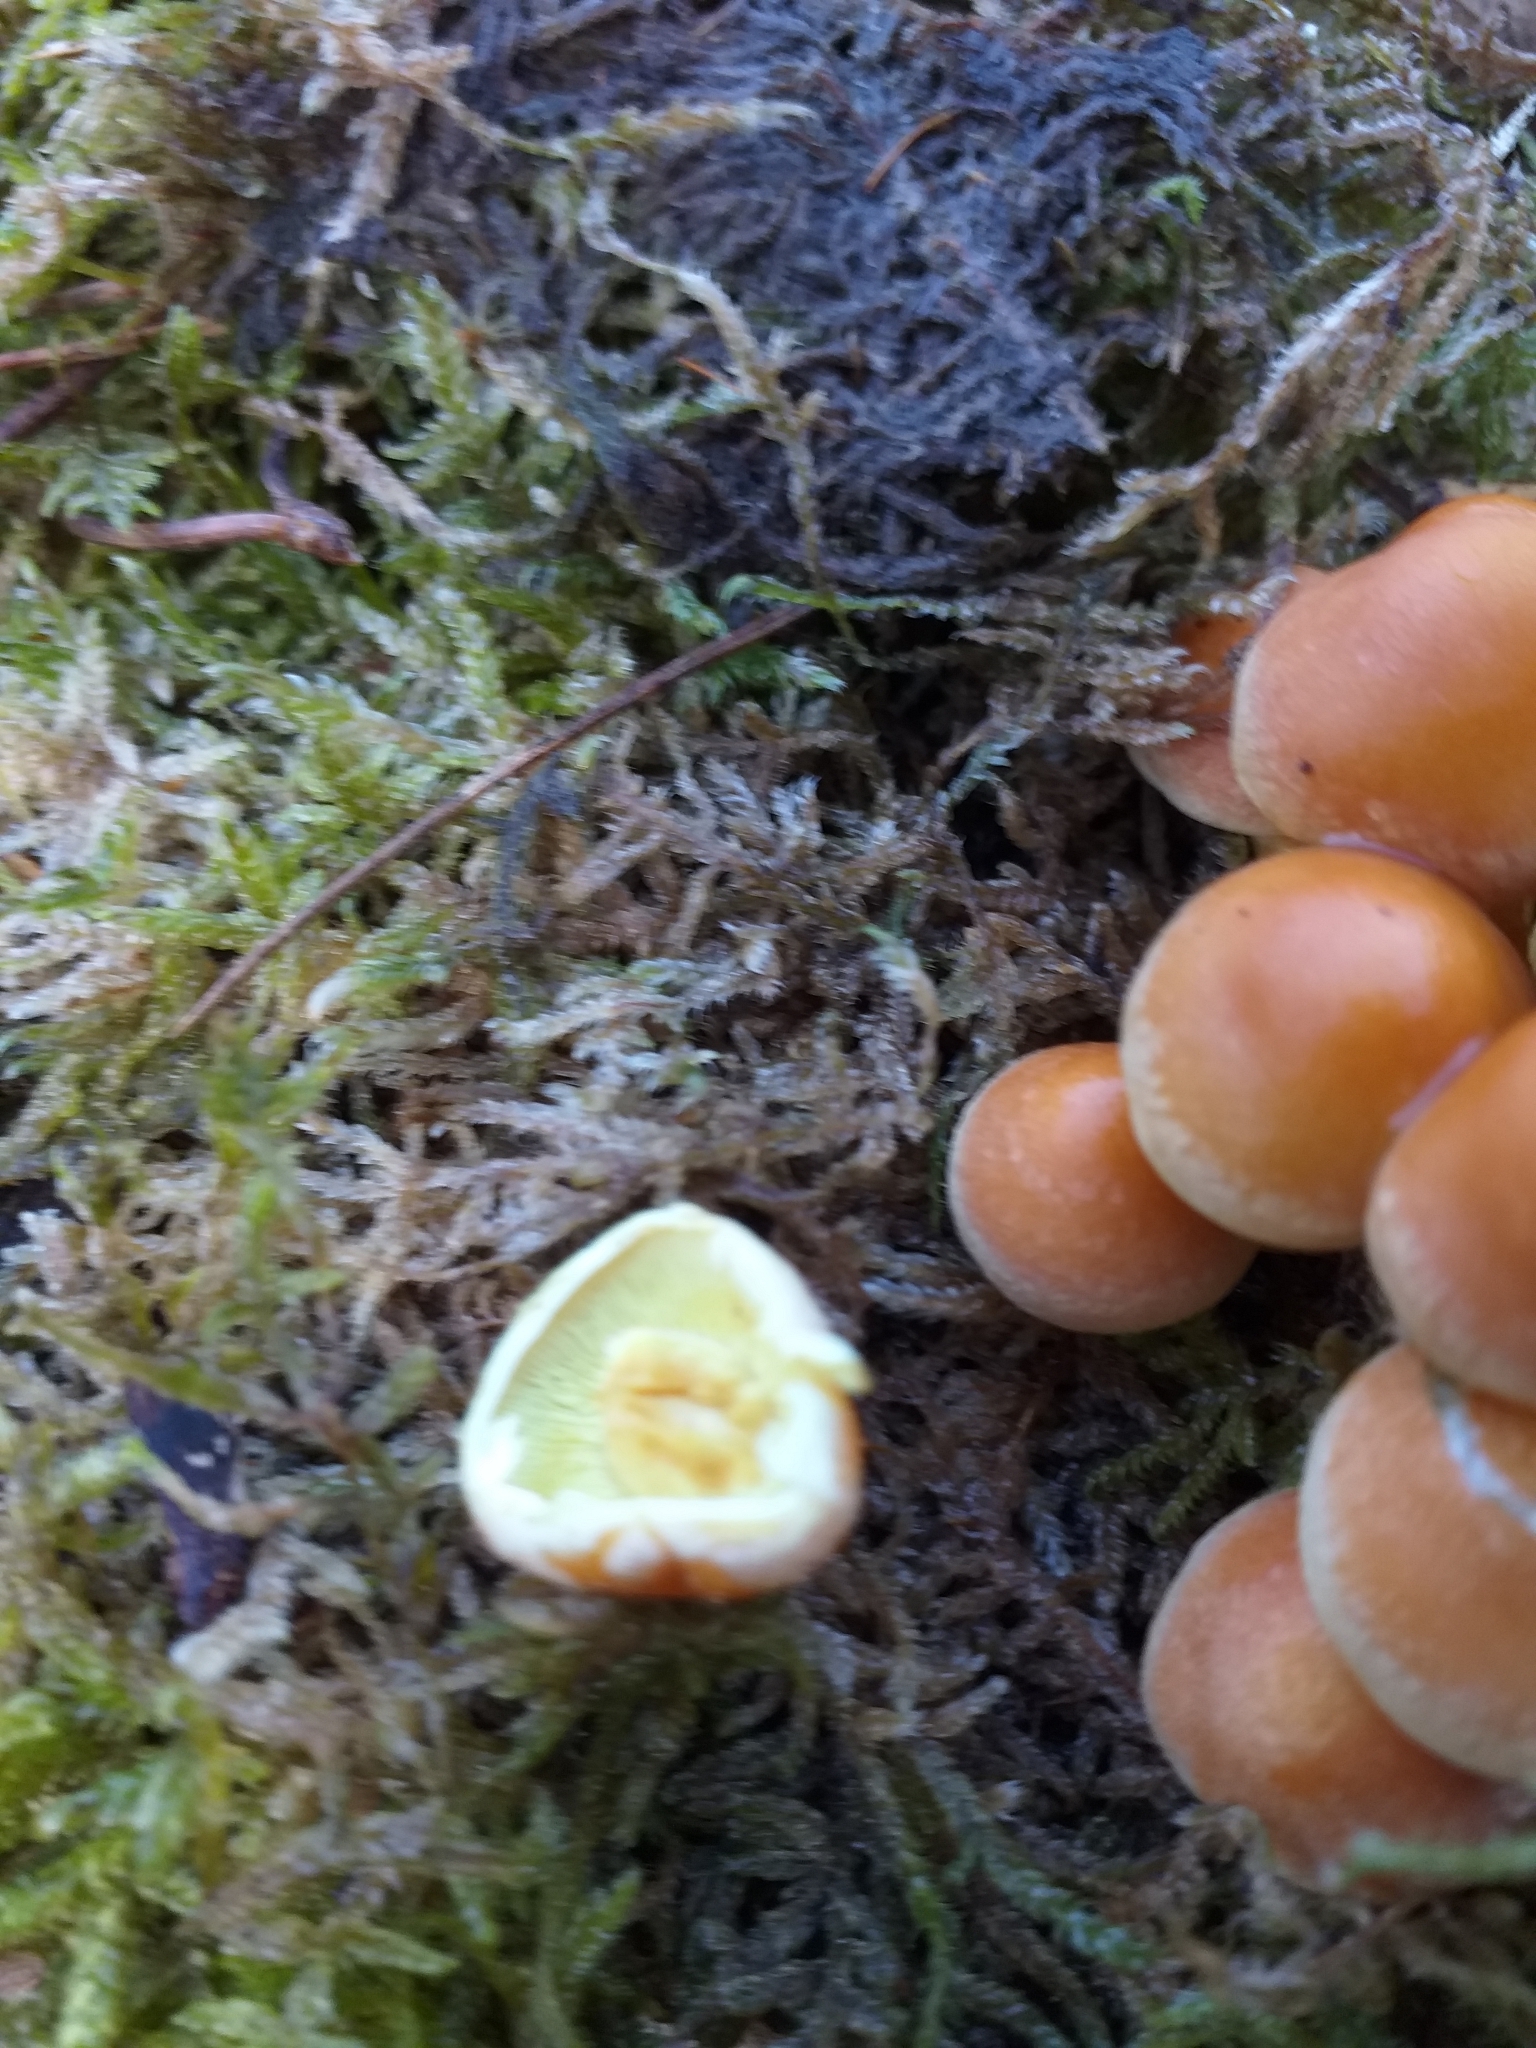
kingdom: Fungi
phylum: Basidiomycota
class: Agaricomycetes
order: Agaricales
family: Strophariaceae
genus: Hypholoma
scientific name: Hypholoma fasciculare
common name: Sulphur tuft
